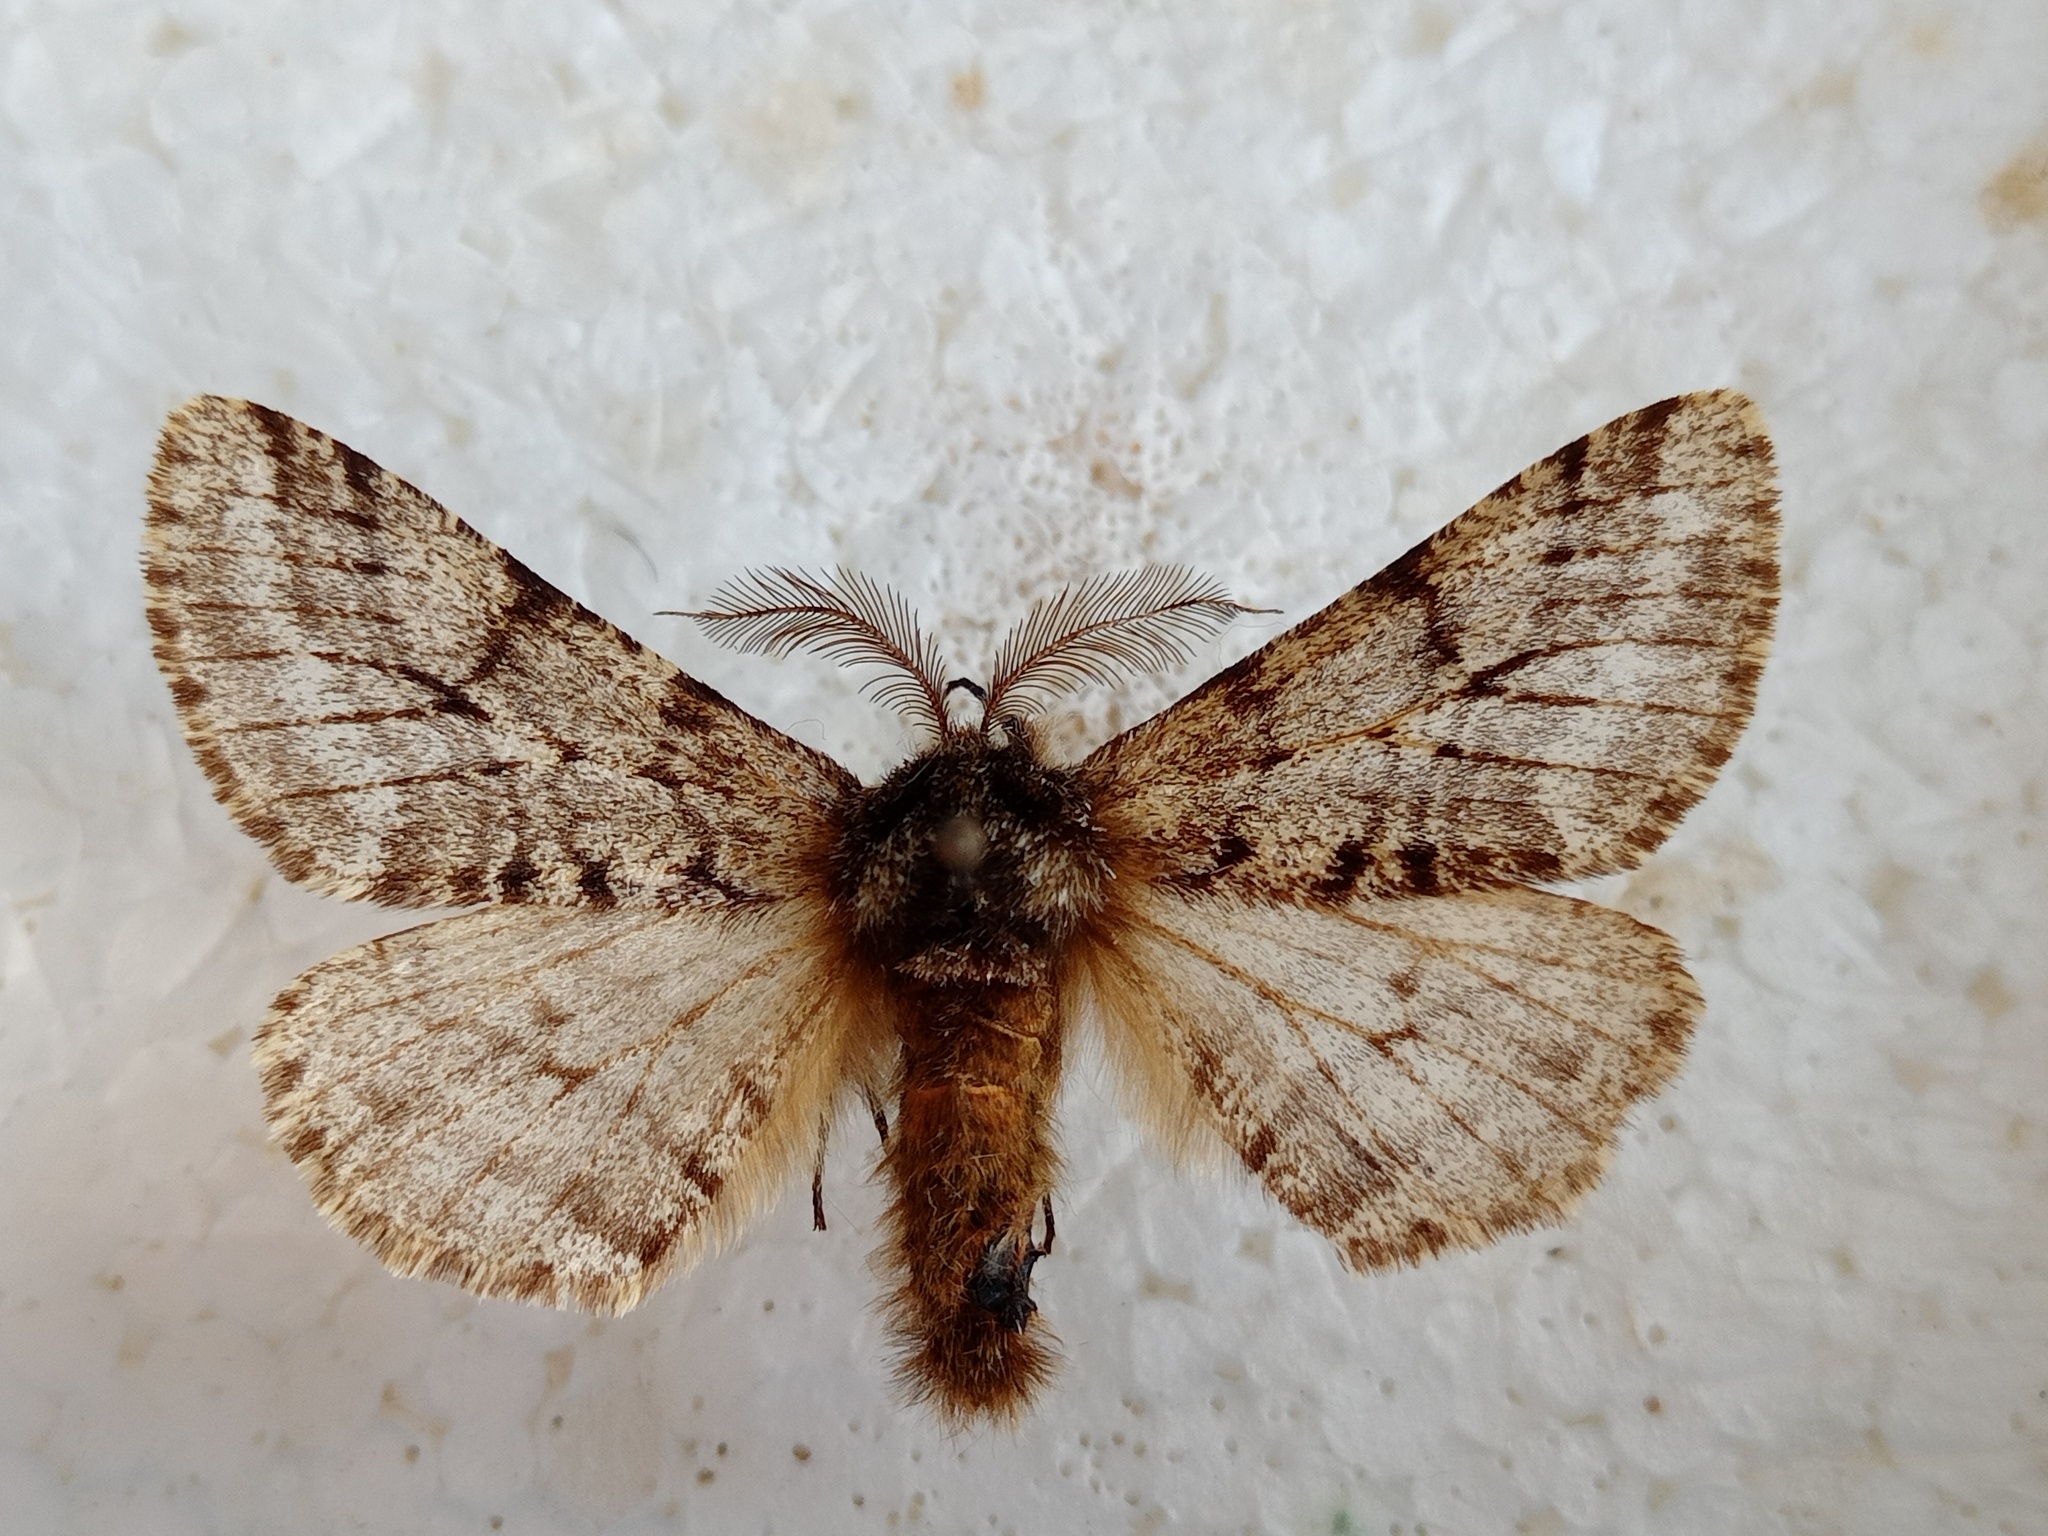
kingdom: Animalia
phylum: Arthropoda
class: Insecta
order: Lepidoptera
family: Geometridae
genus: Lycia
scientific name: Lycia hirtaria
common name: Brindled beauty
